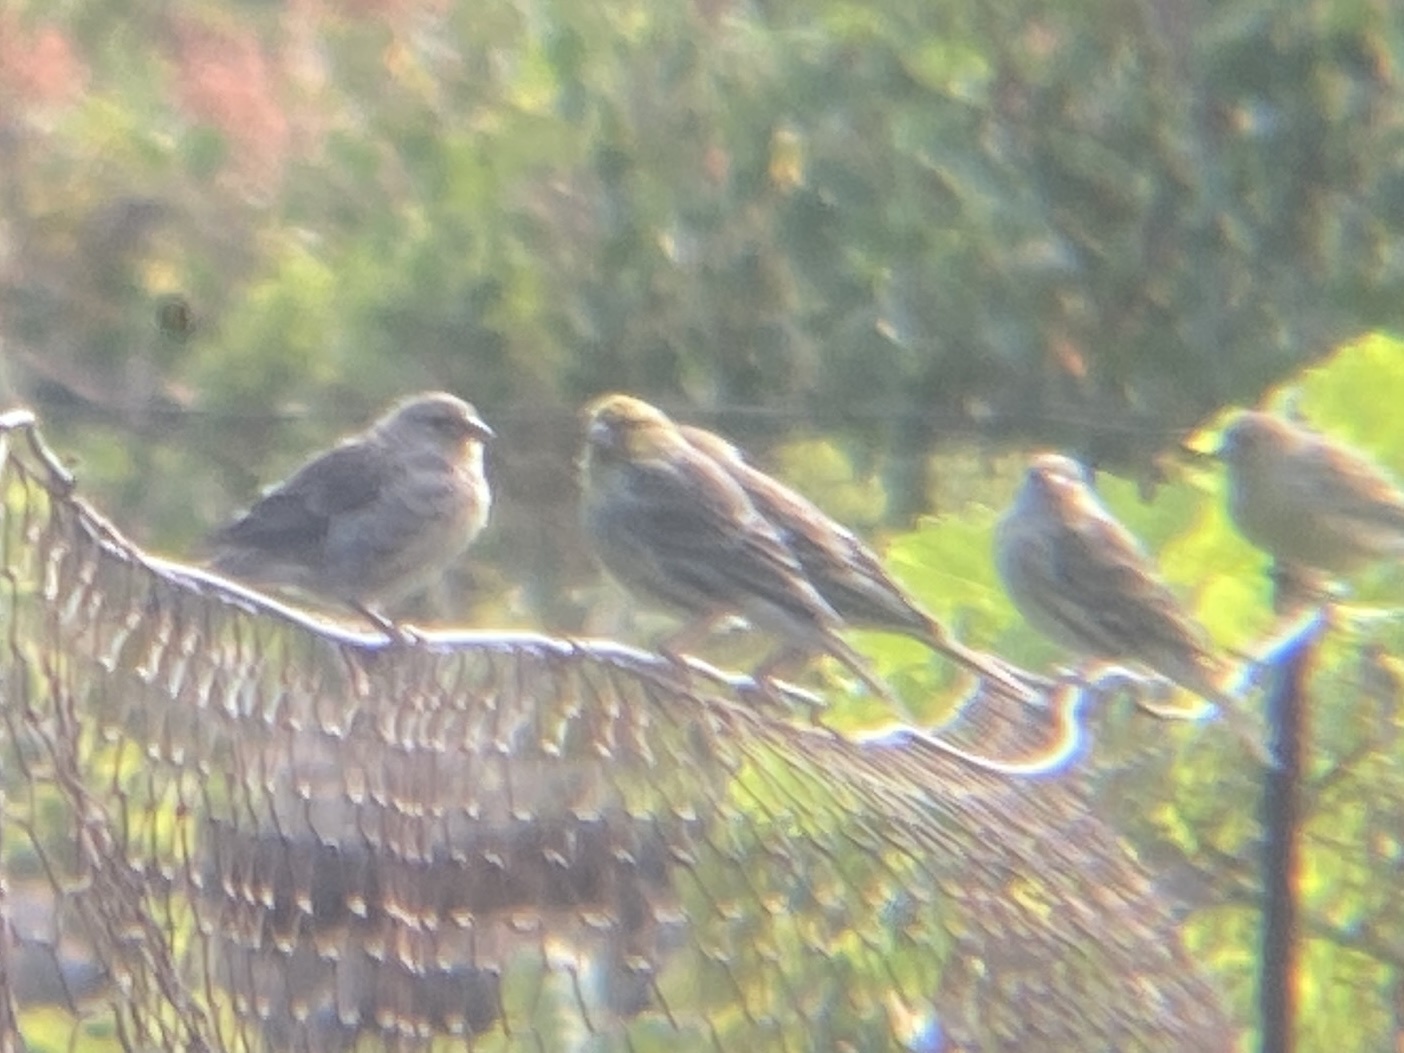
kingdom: Animalia
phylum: Chordata
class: Aves
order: Passeriformes
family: Fringillidae
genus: Serinus
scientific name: Serinus canaria
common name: Atlantic canary
